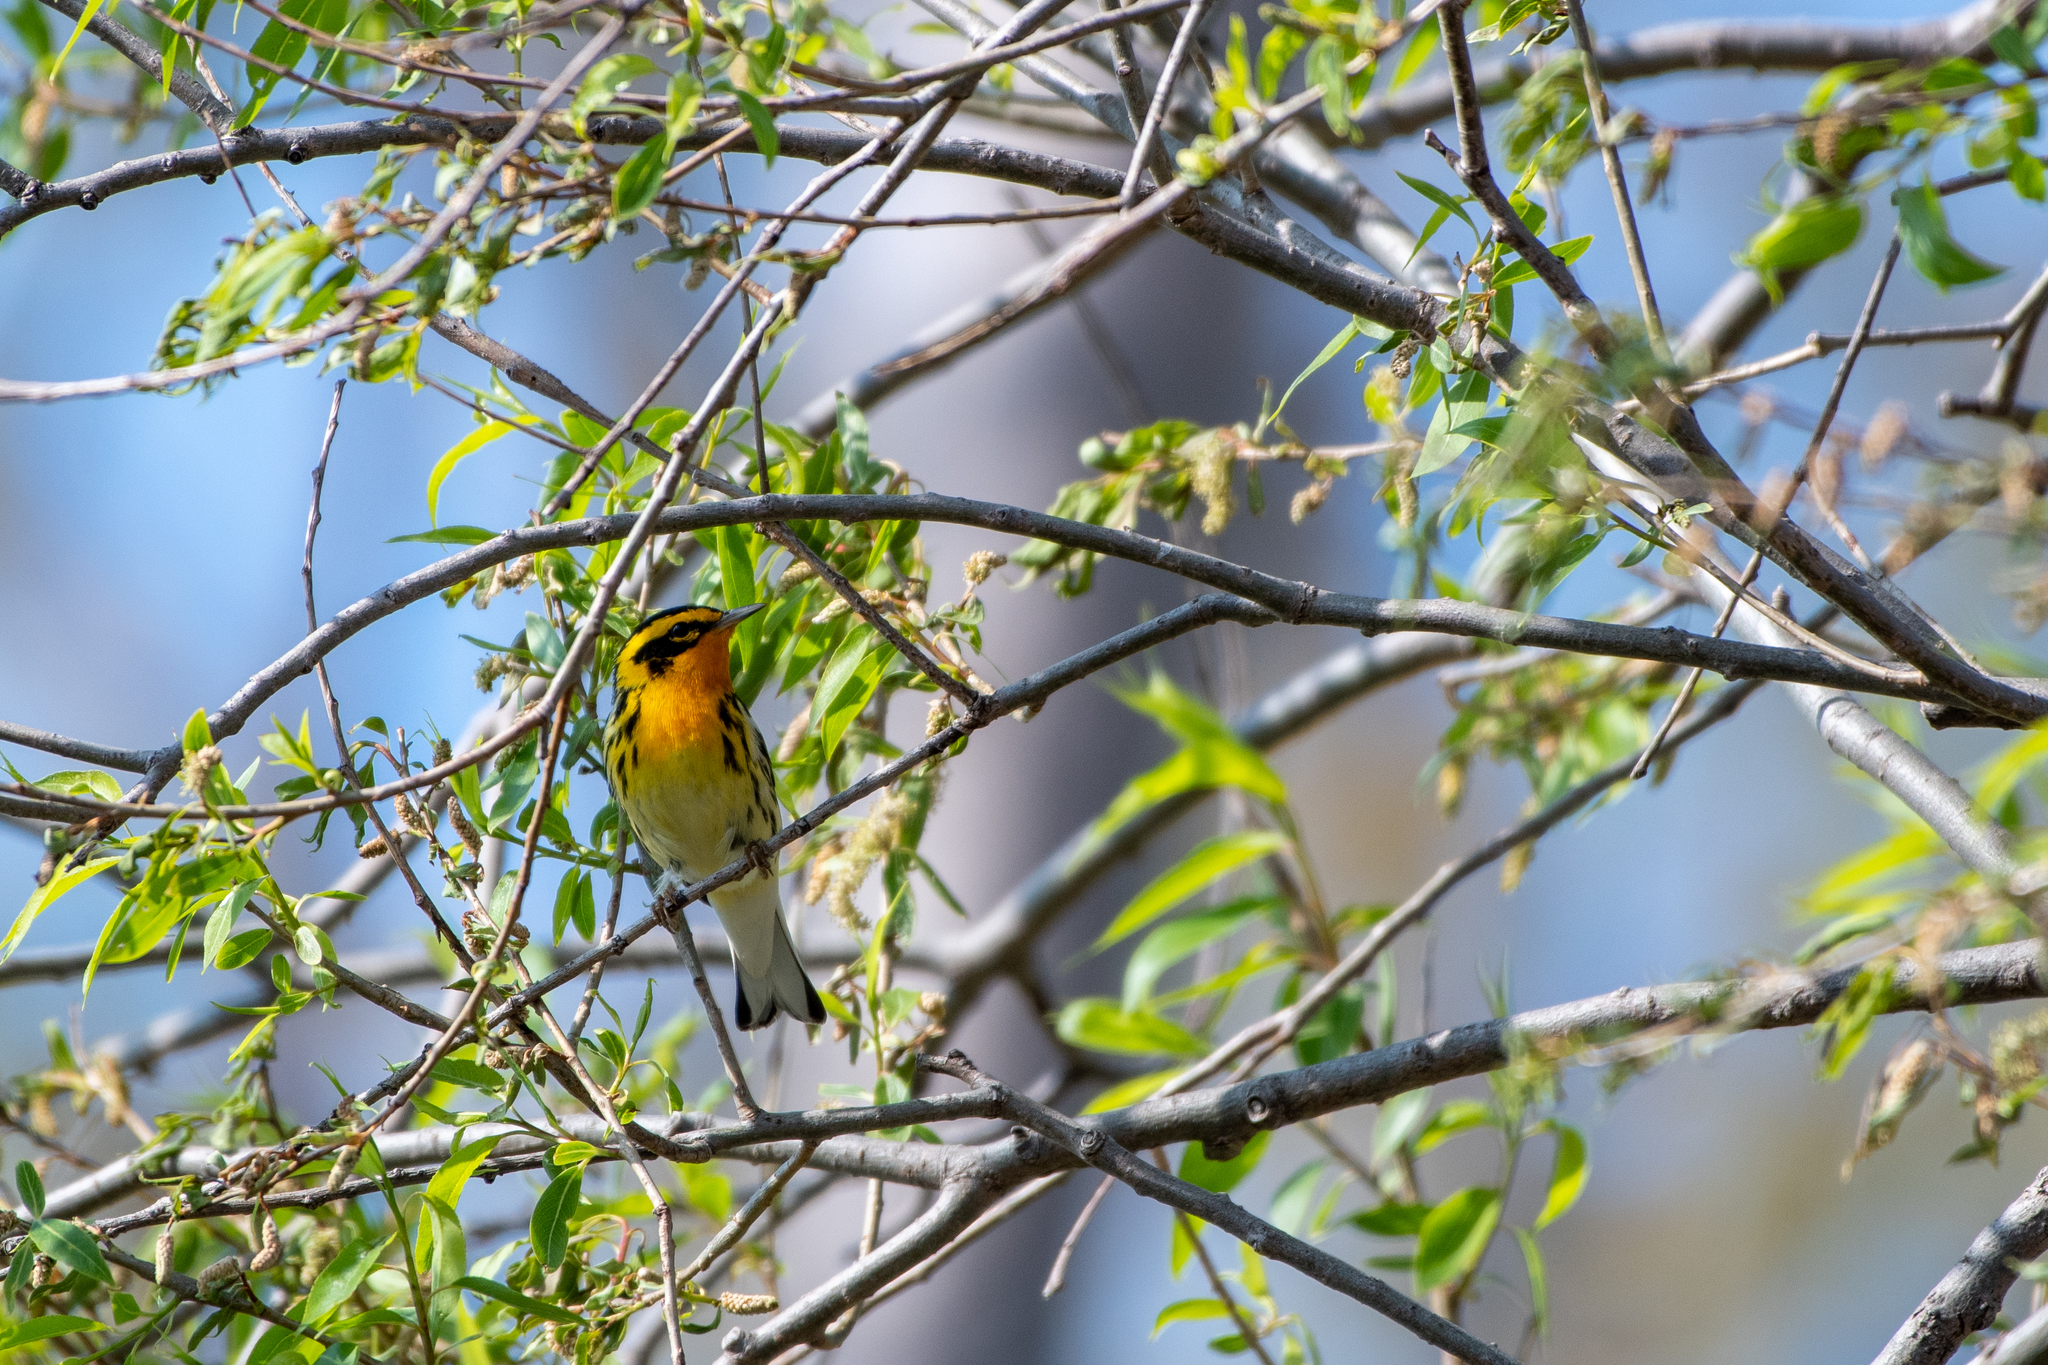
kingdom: Animalia
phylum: Chordata
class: Aves
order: Passeriformes
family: Parulidae
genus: Setophaga
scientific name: Setophaga fusca
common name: Blackburnian warbler
